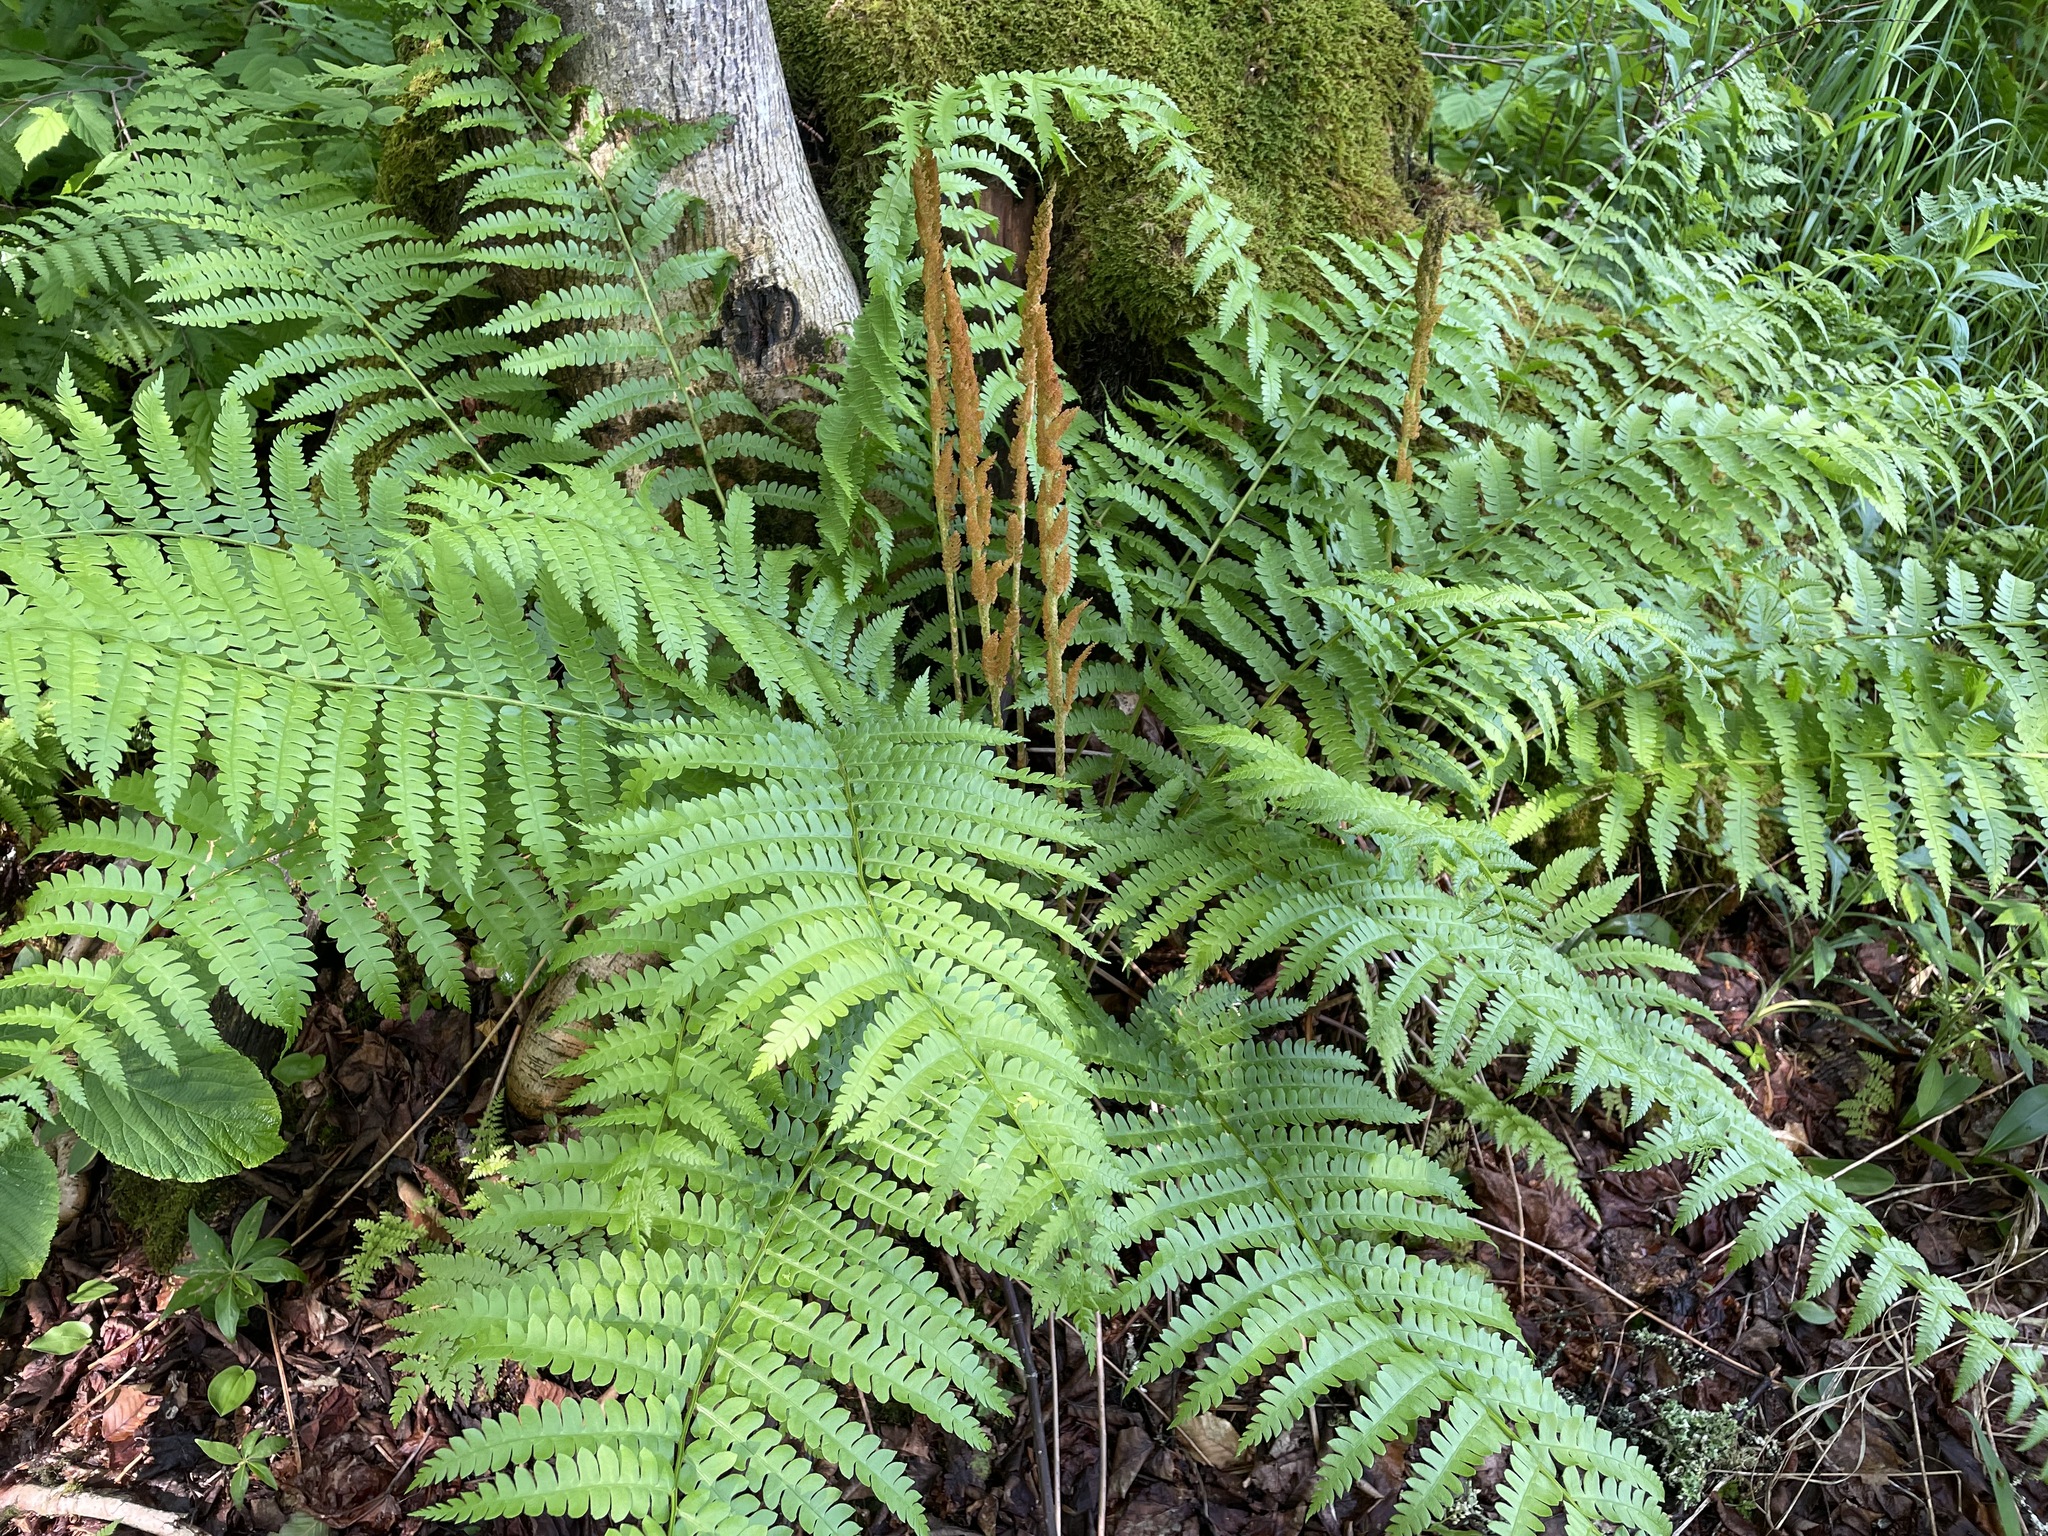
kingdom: Plantae
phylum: Tracheophyta
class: Polypodiopsida
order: Osmundales
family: Osmundaceae
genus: Osmundastrum
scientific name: Osmundastrum cinnamomeum
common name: Cinnamon fern
